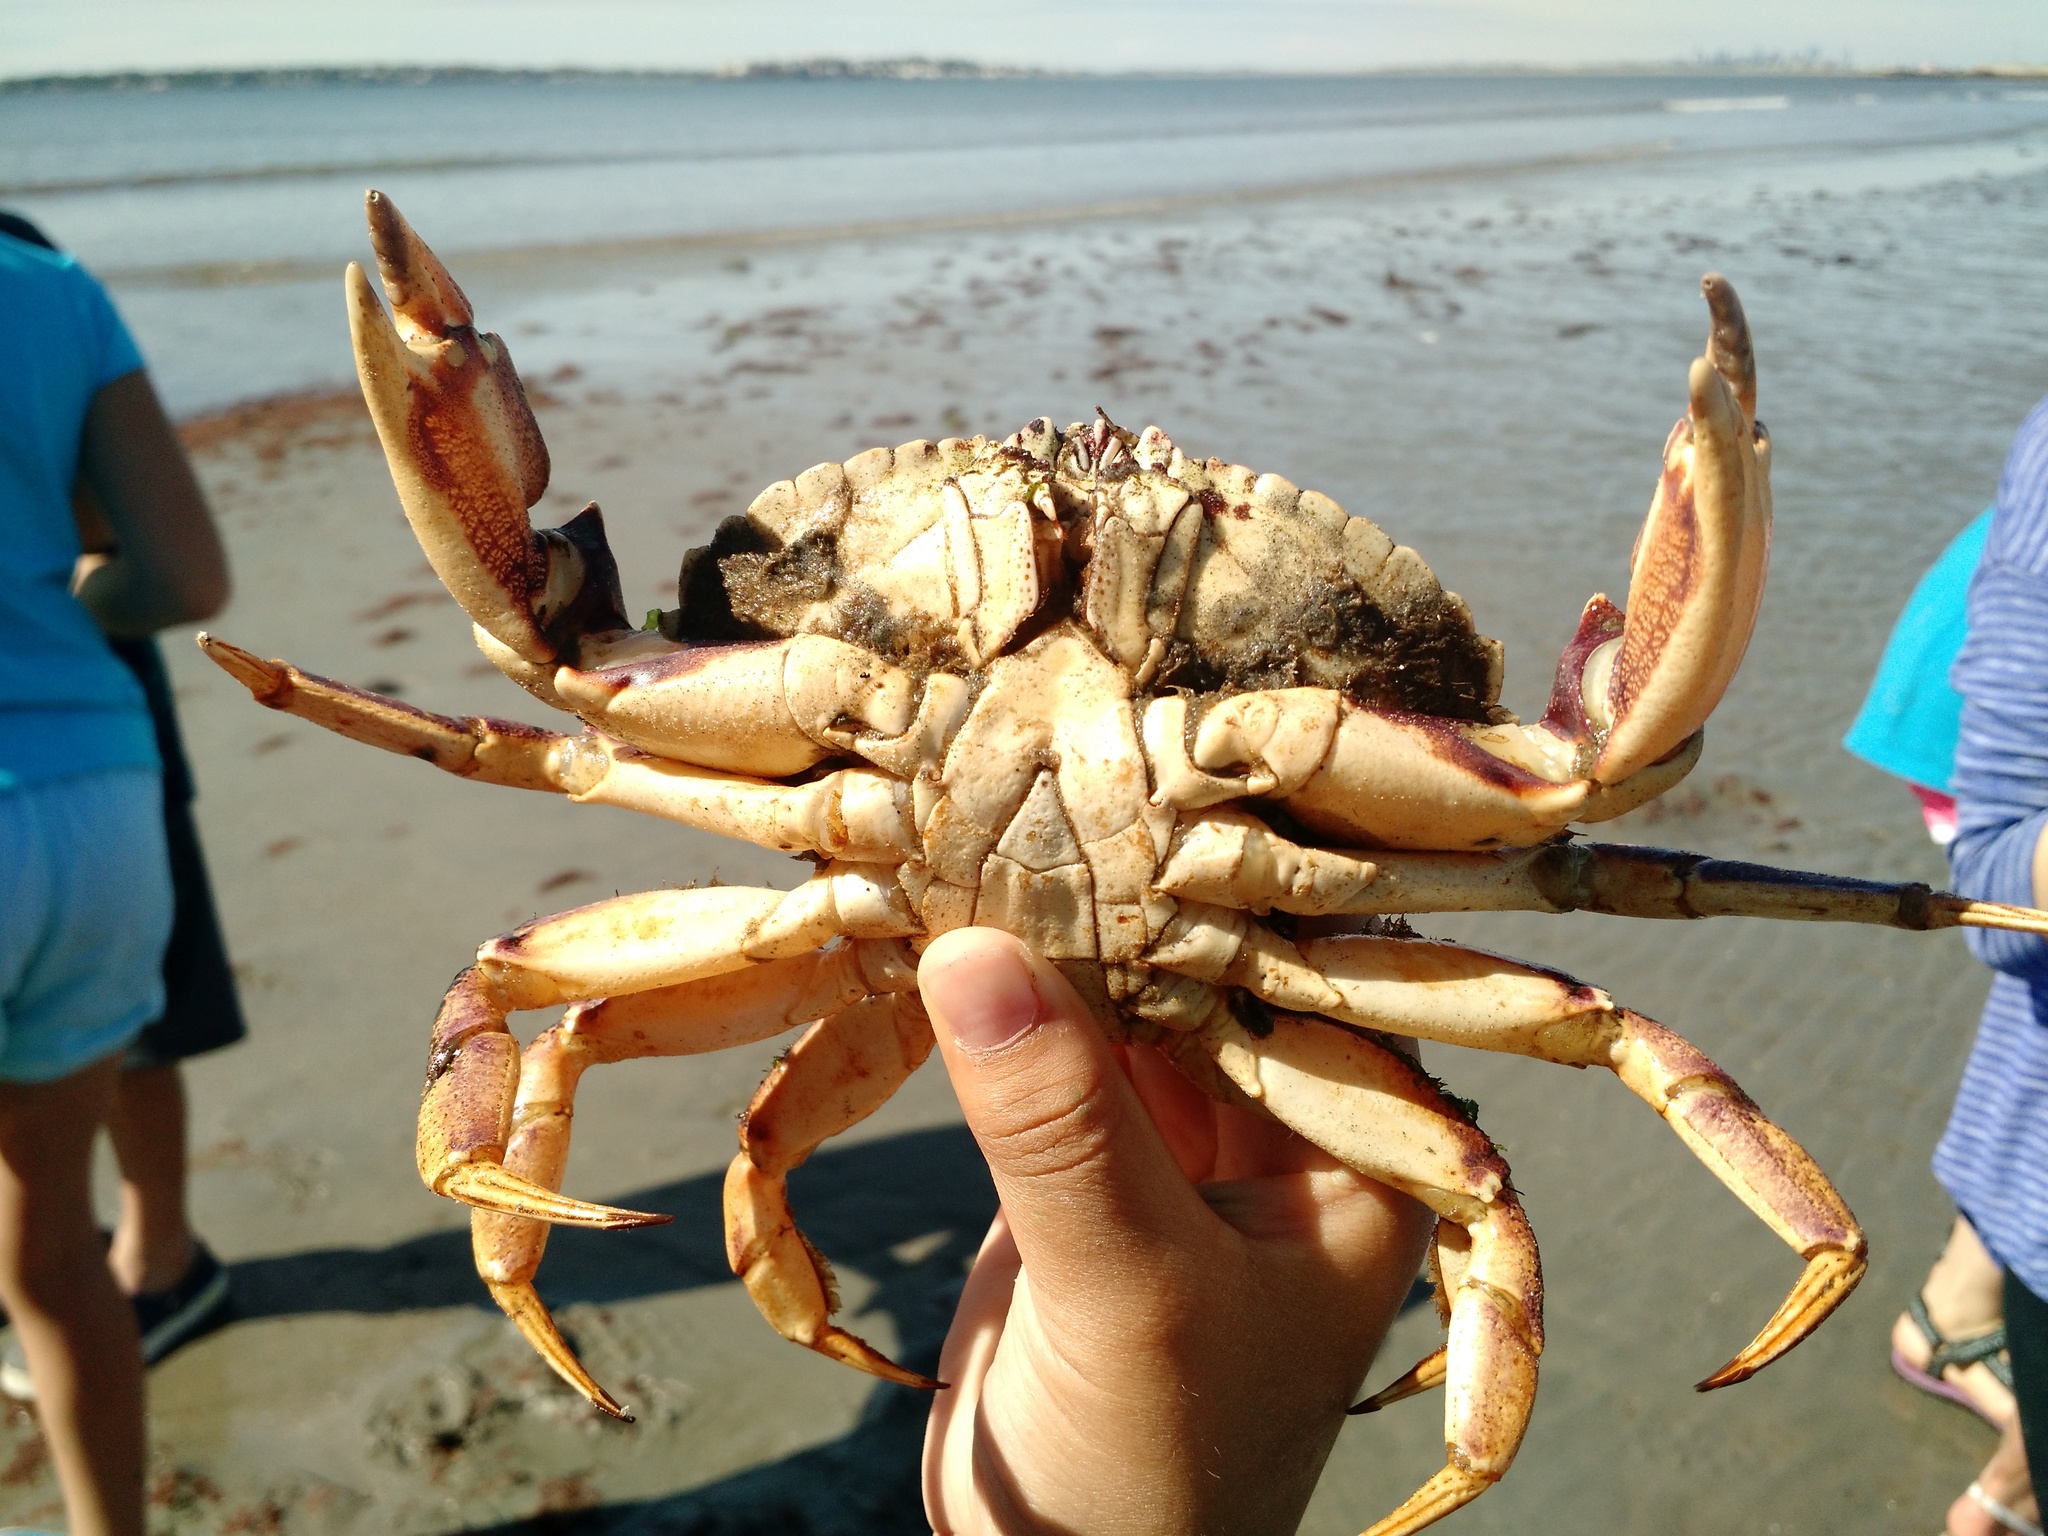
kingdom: Animalia
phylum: Arthropoda
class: Malacostraca
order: Decapoda
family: Cancridae
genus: Cancer
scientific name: Cancer irroratus
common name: Atlantic rock crab
